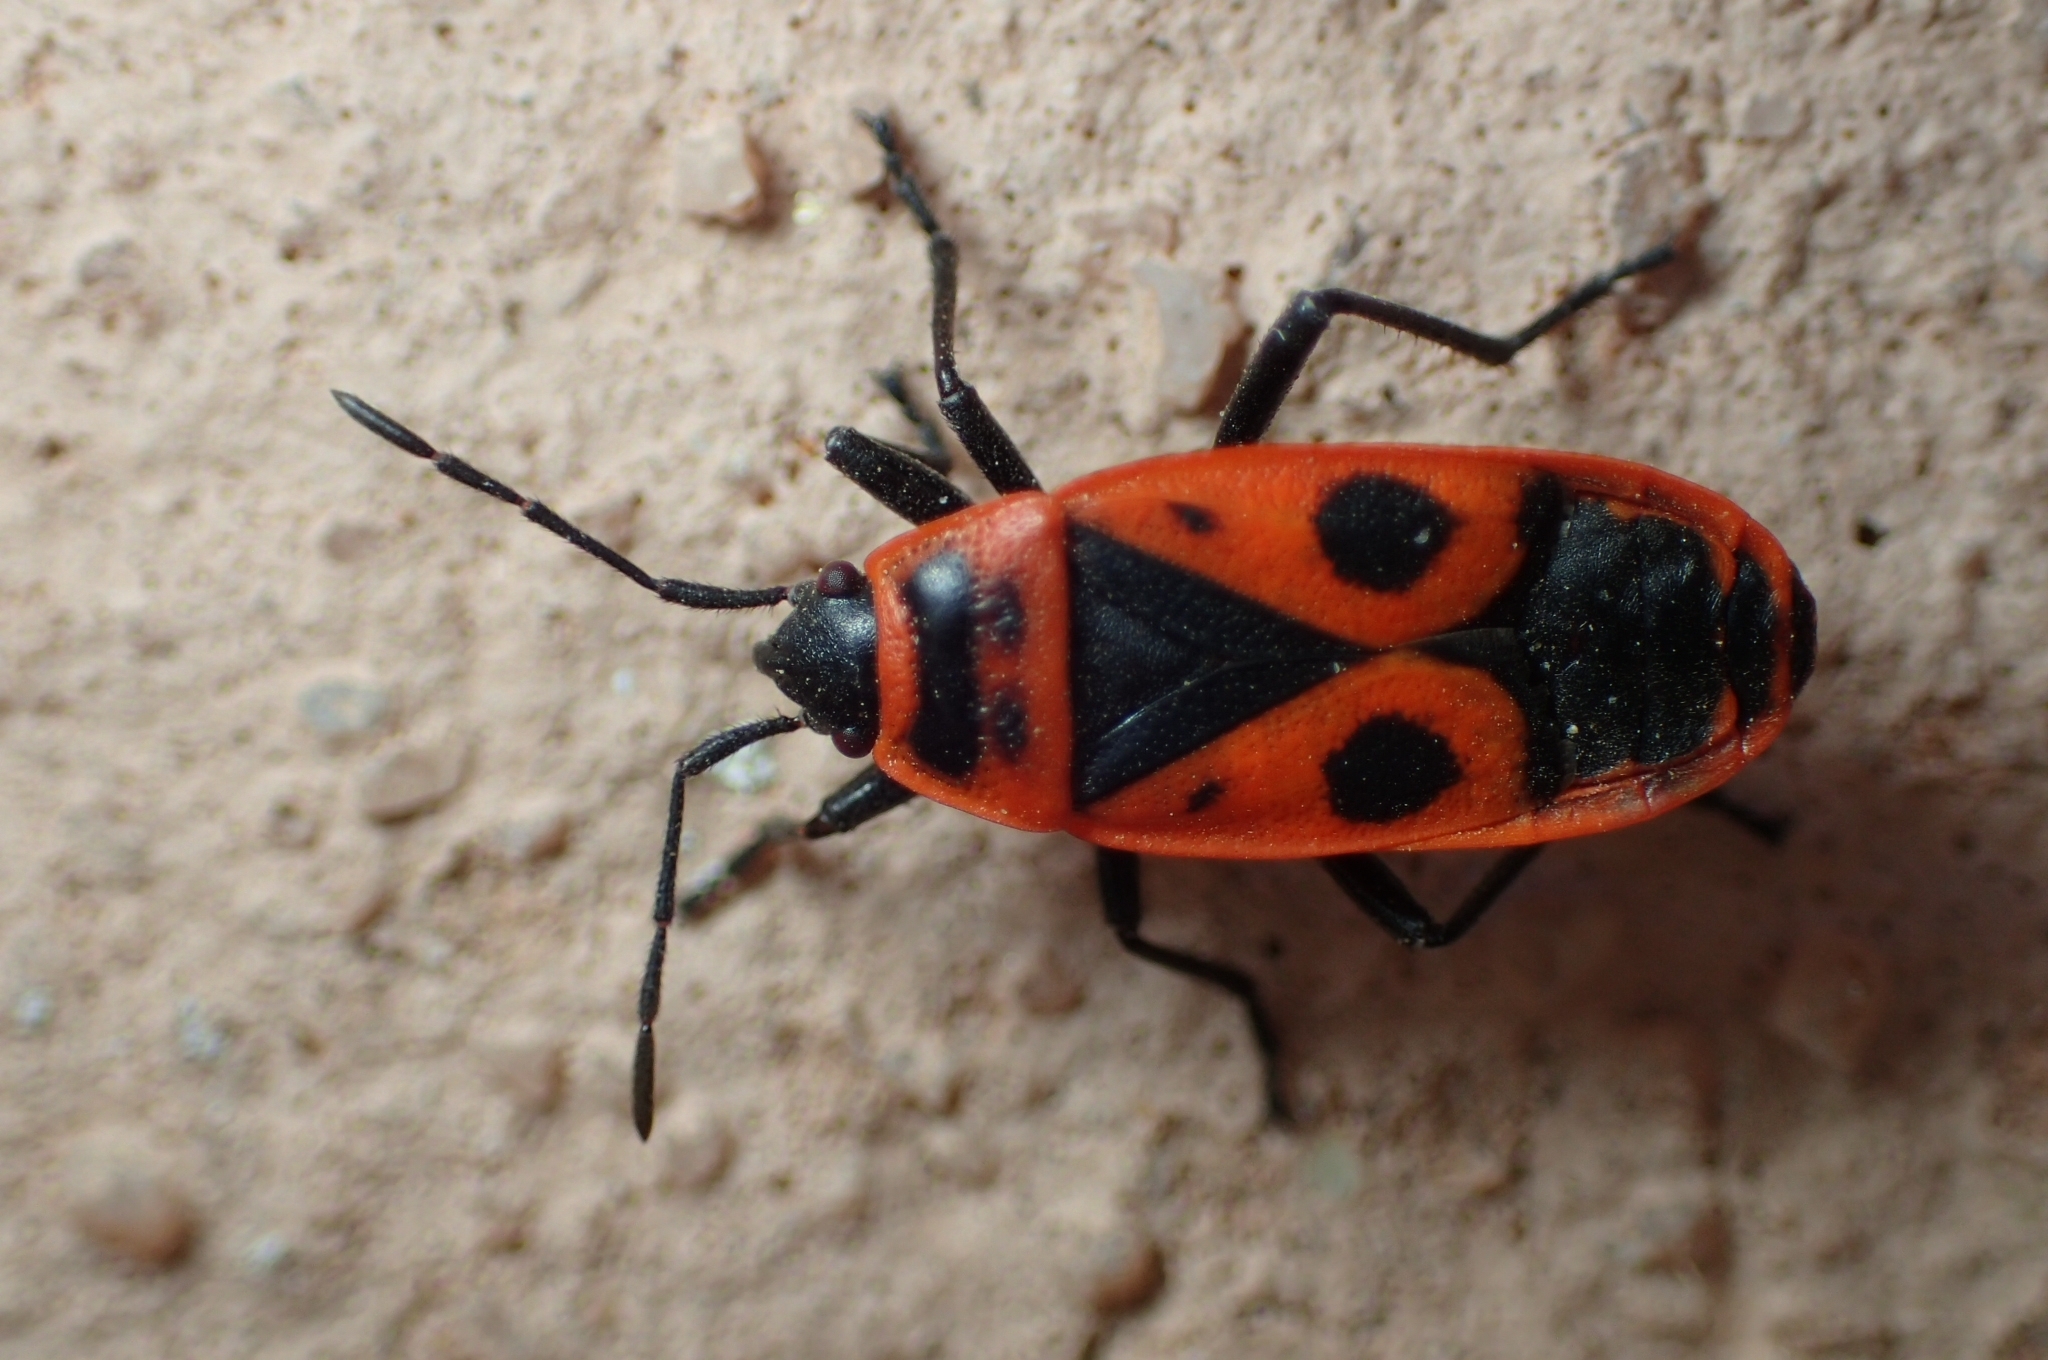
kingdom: Animalia
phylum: Arthropoda
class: Insecta
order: Hemiptera
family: Pyrrhocoridae
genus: Pyrrhocoris
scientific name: Pyrrhocoris apterus
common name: Firebug
